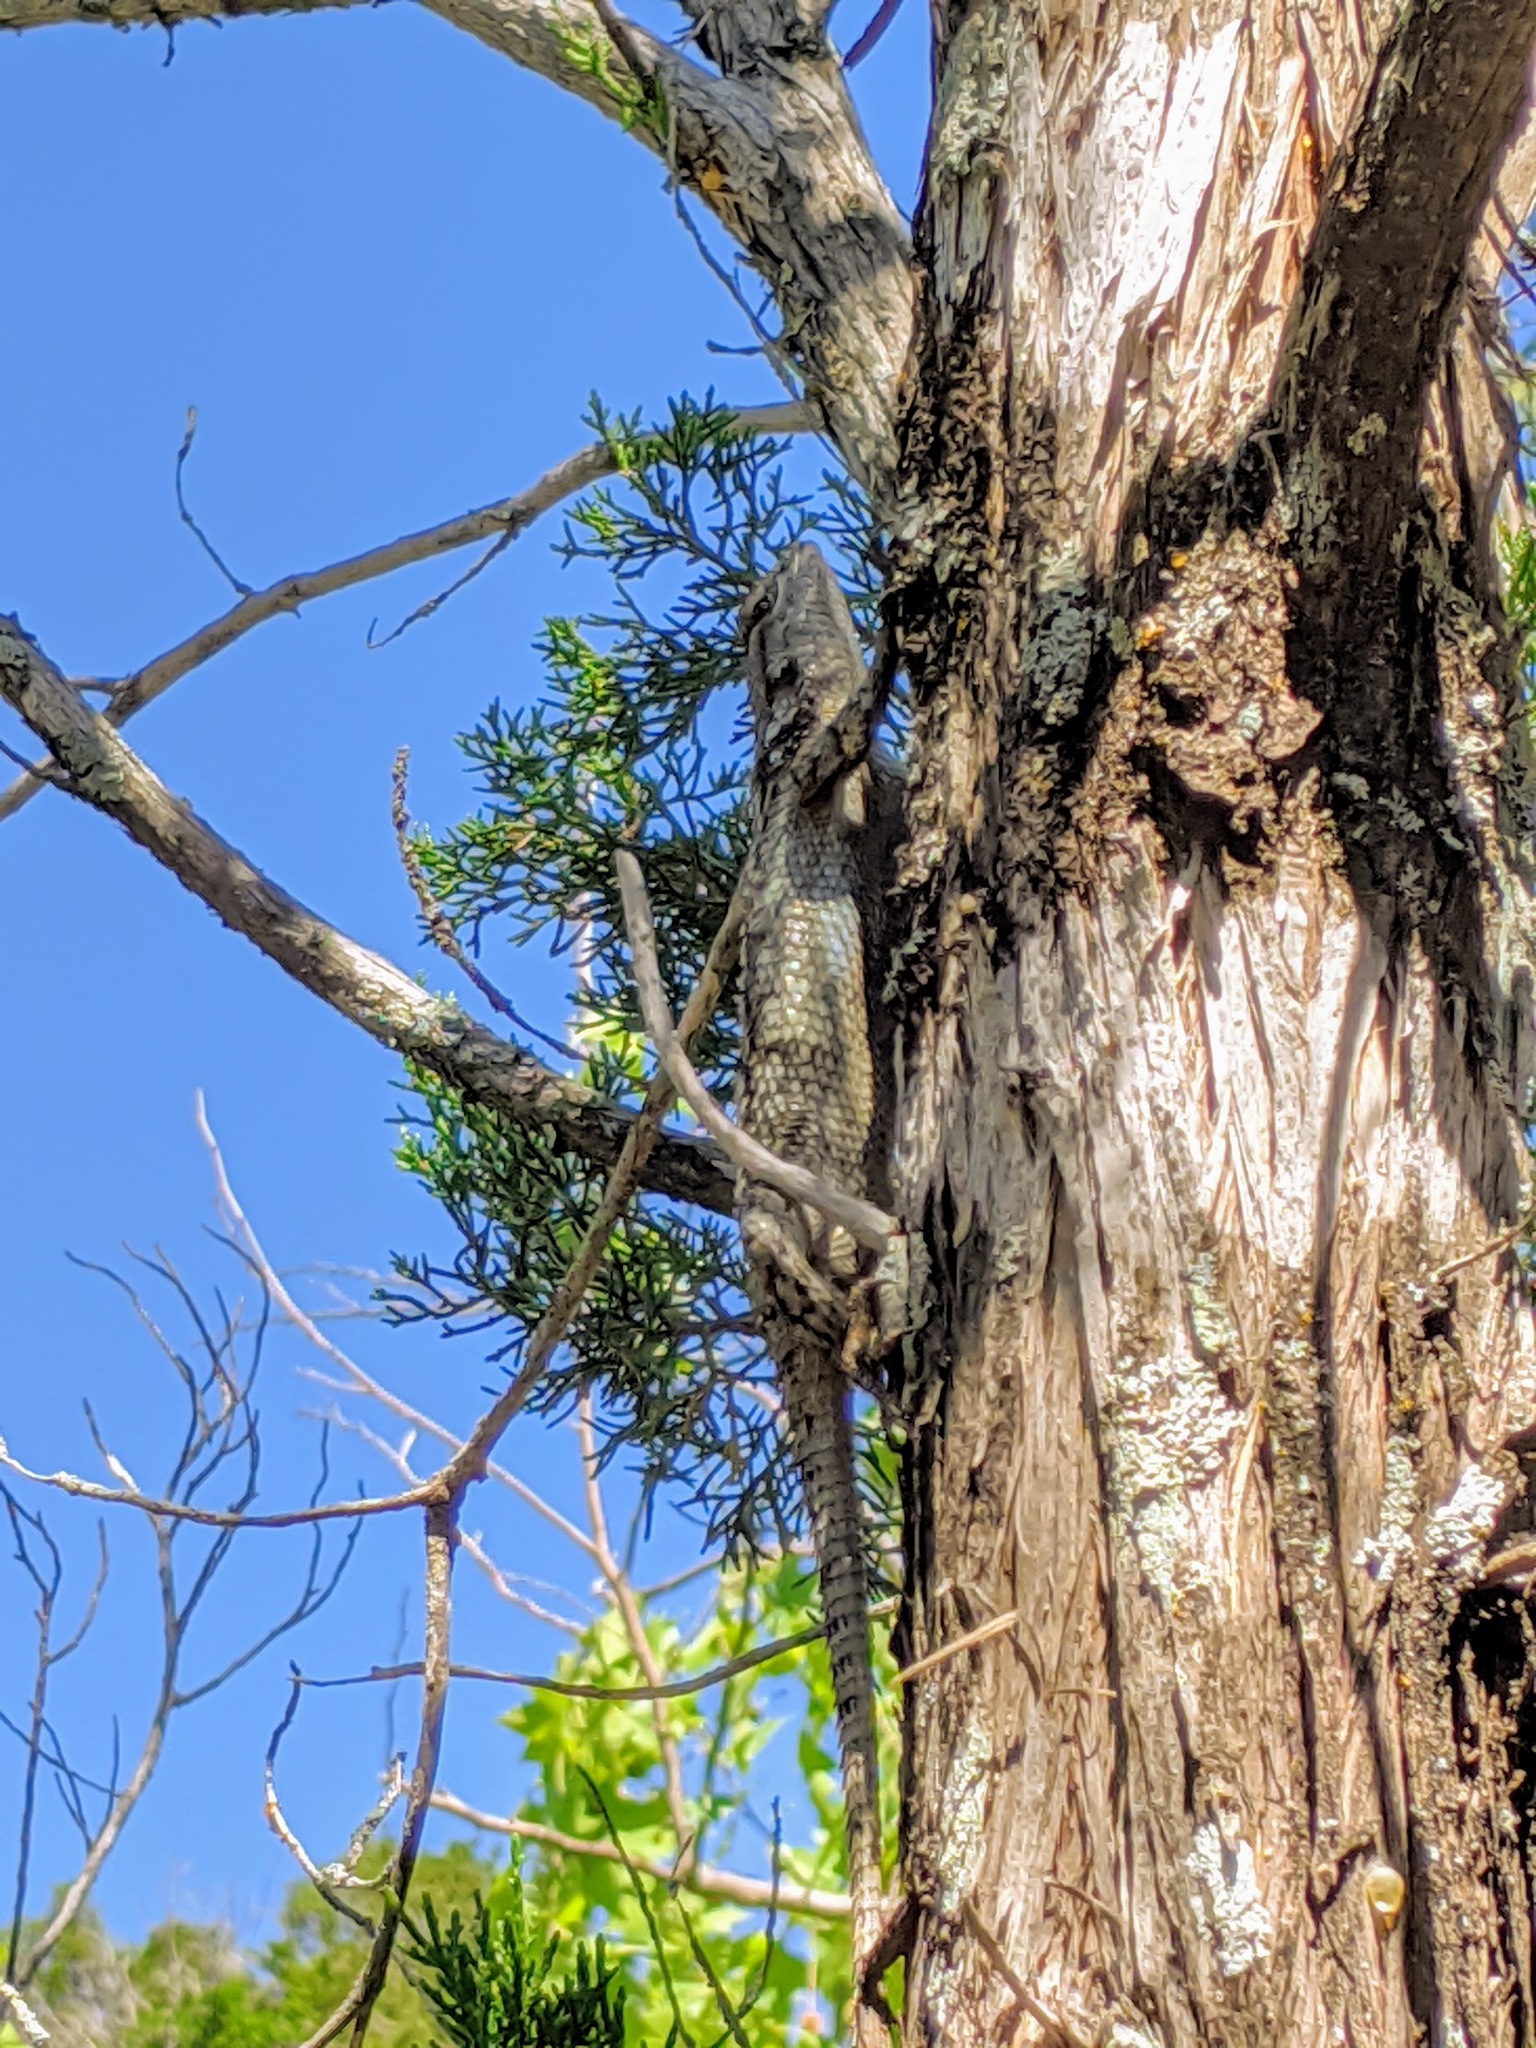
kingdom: Animalia
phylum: Chordata
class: Squamata
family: Phrynosomatidae
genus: Sceloporus
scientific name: Sceloporus olivaceus
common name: Texas spiny lizard
